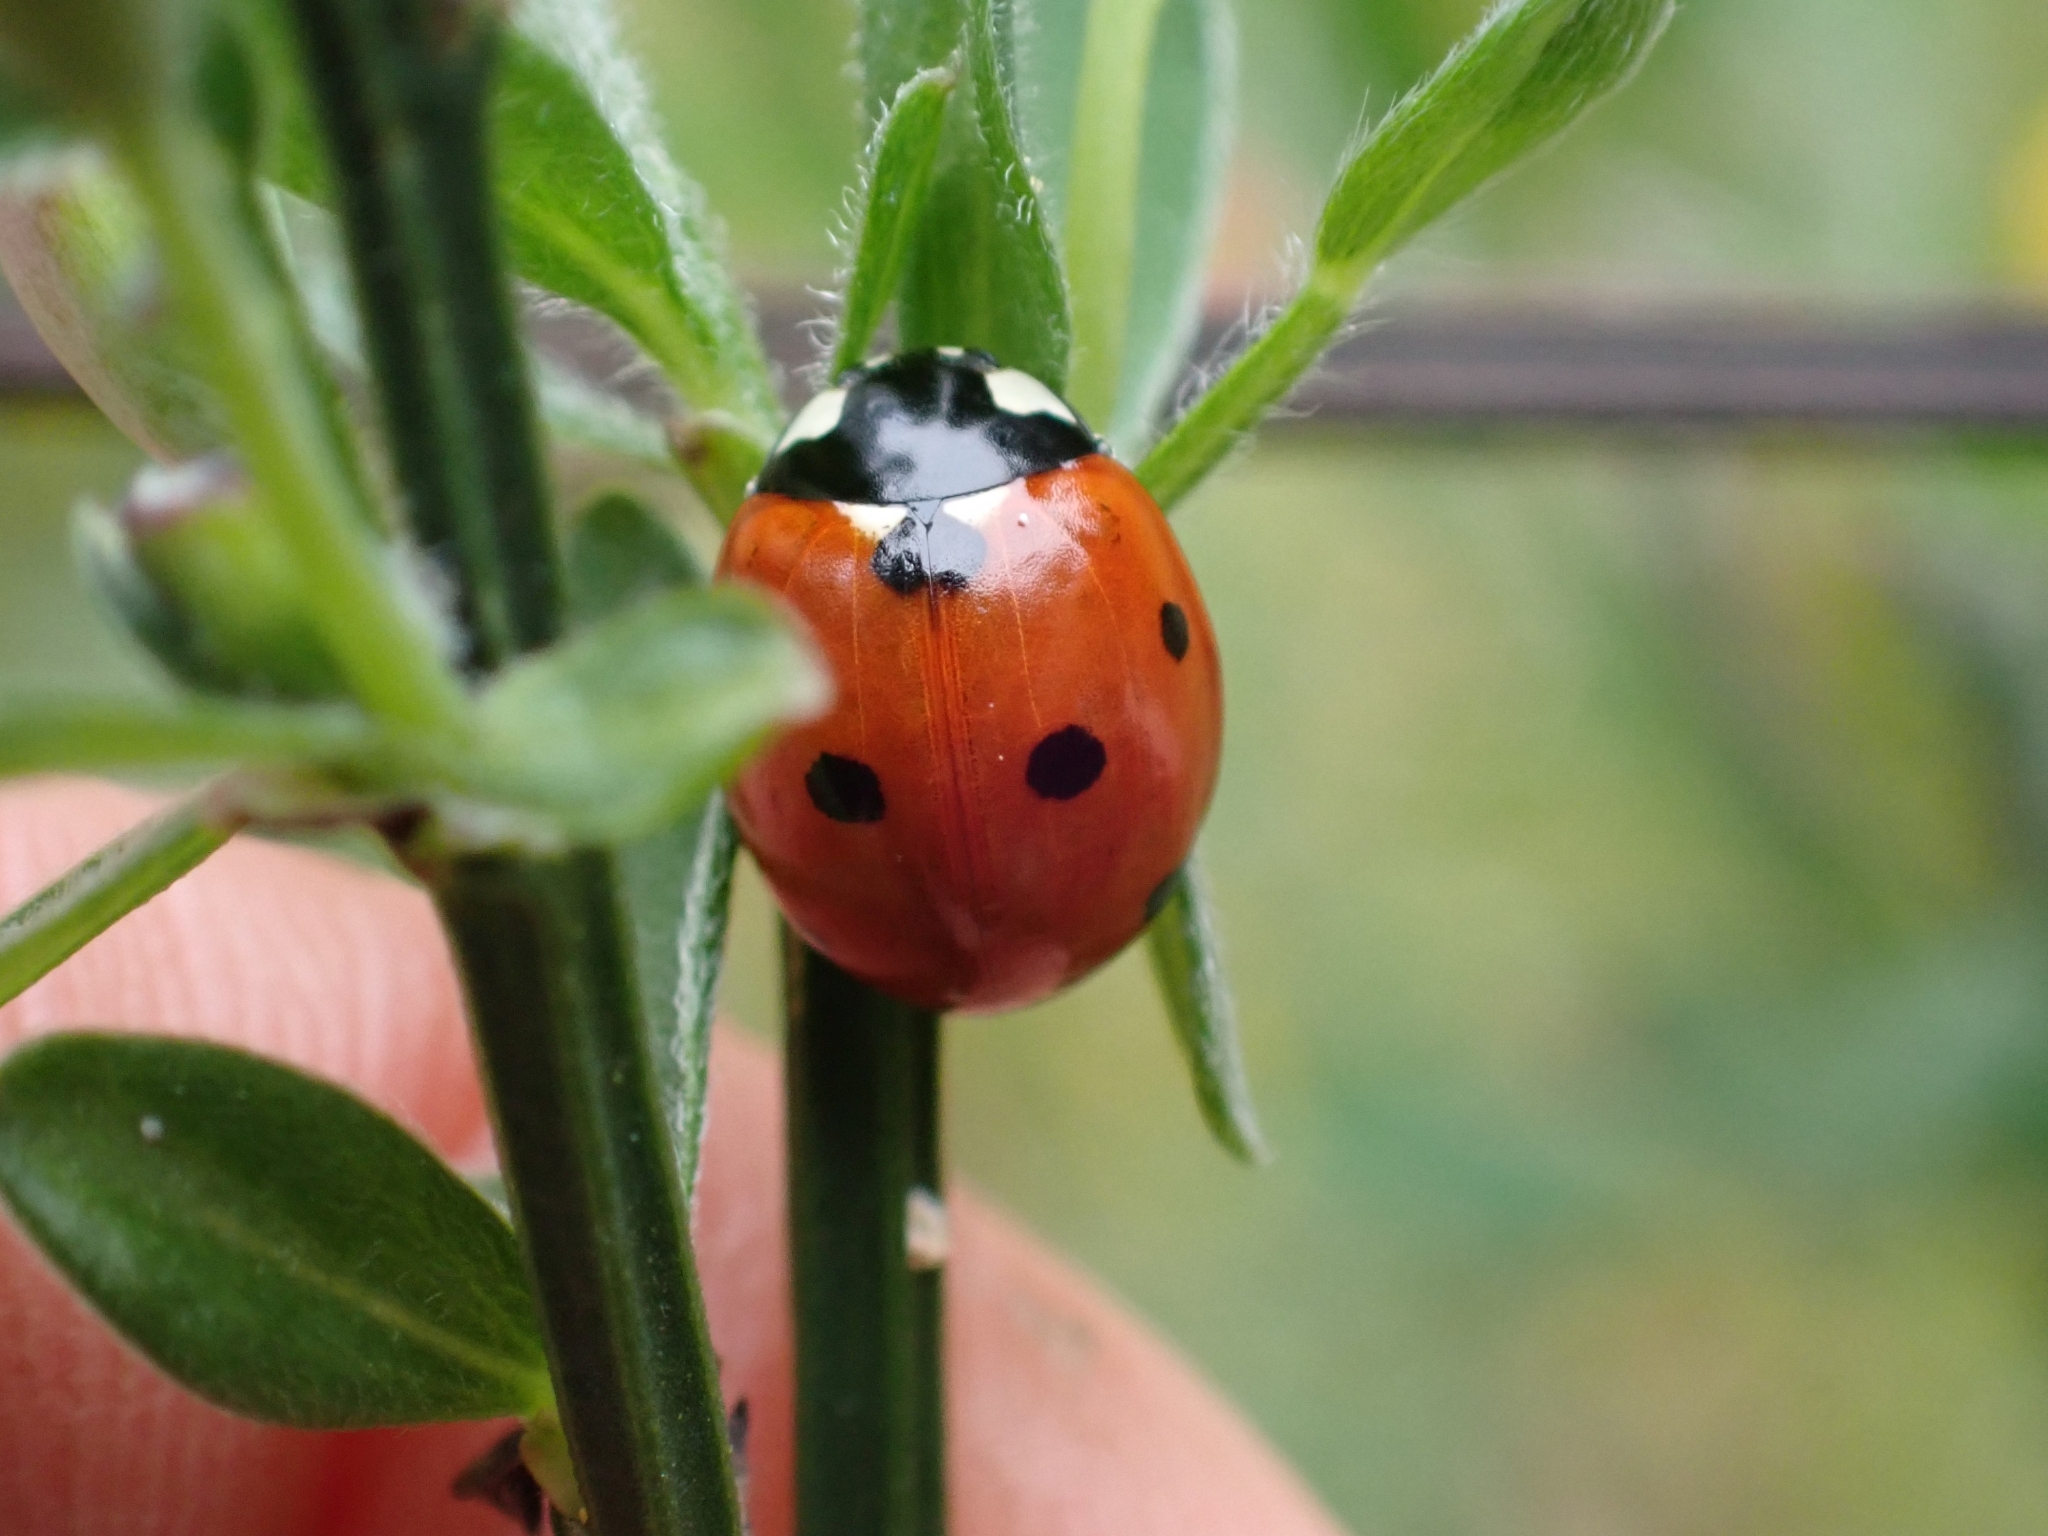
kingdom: Animalia
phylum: Arthropoda
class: Insecta
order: Coleoptera
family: Coccinellidae
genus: Coccinella
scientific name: Coccinella septempunctata
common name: Sevenspotted lady beetle
